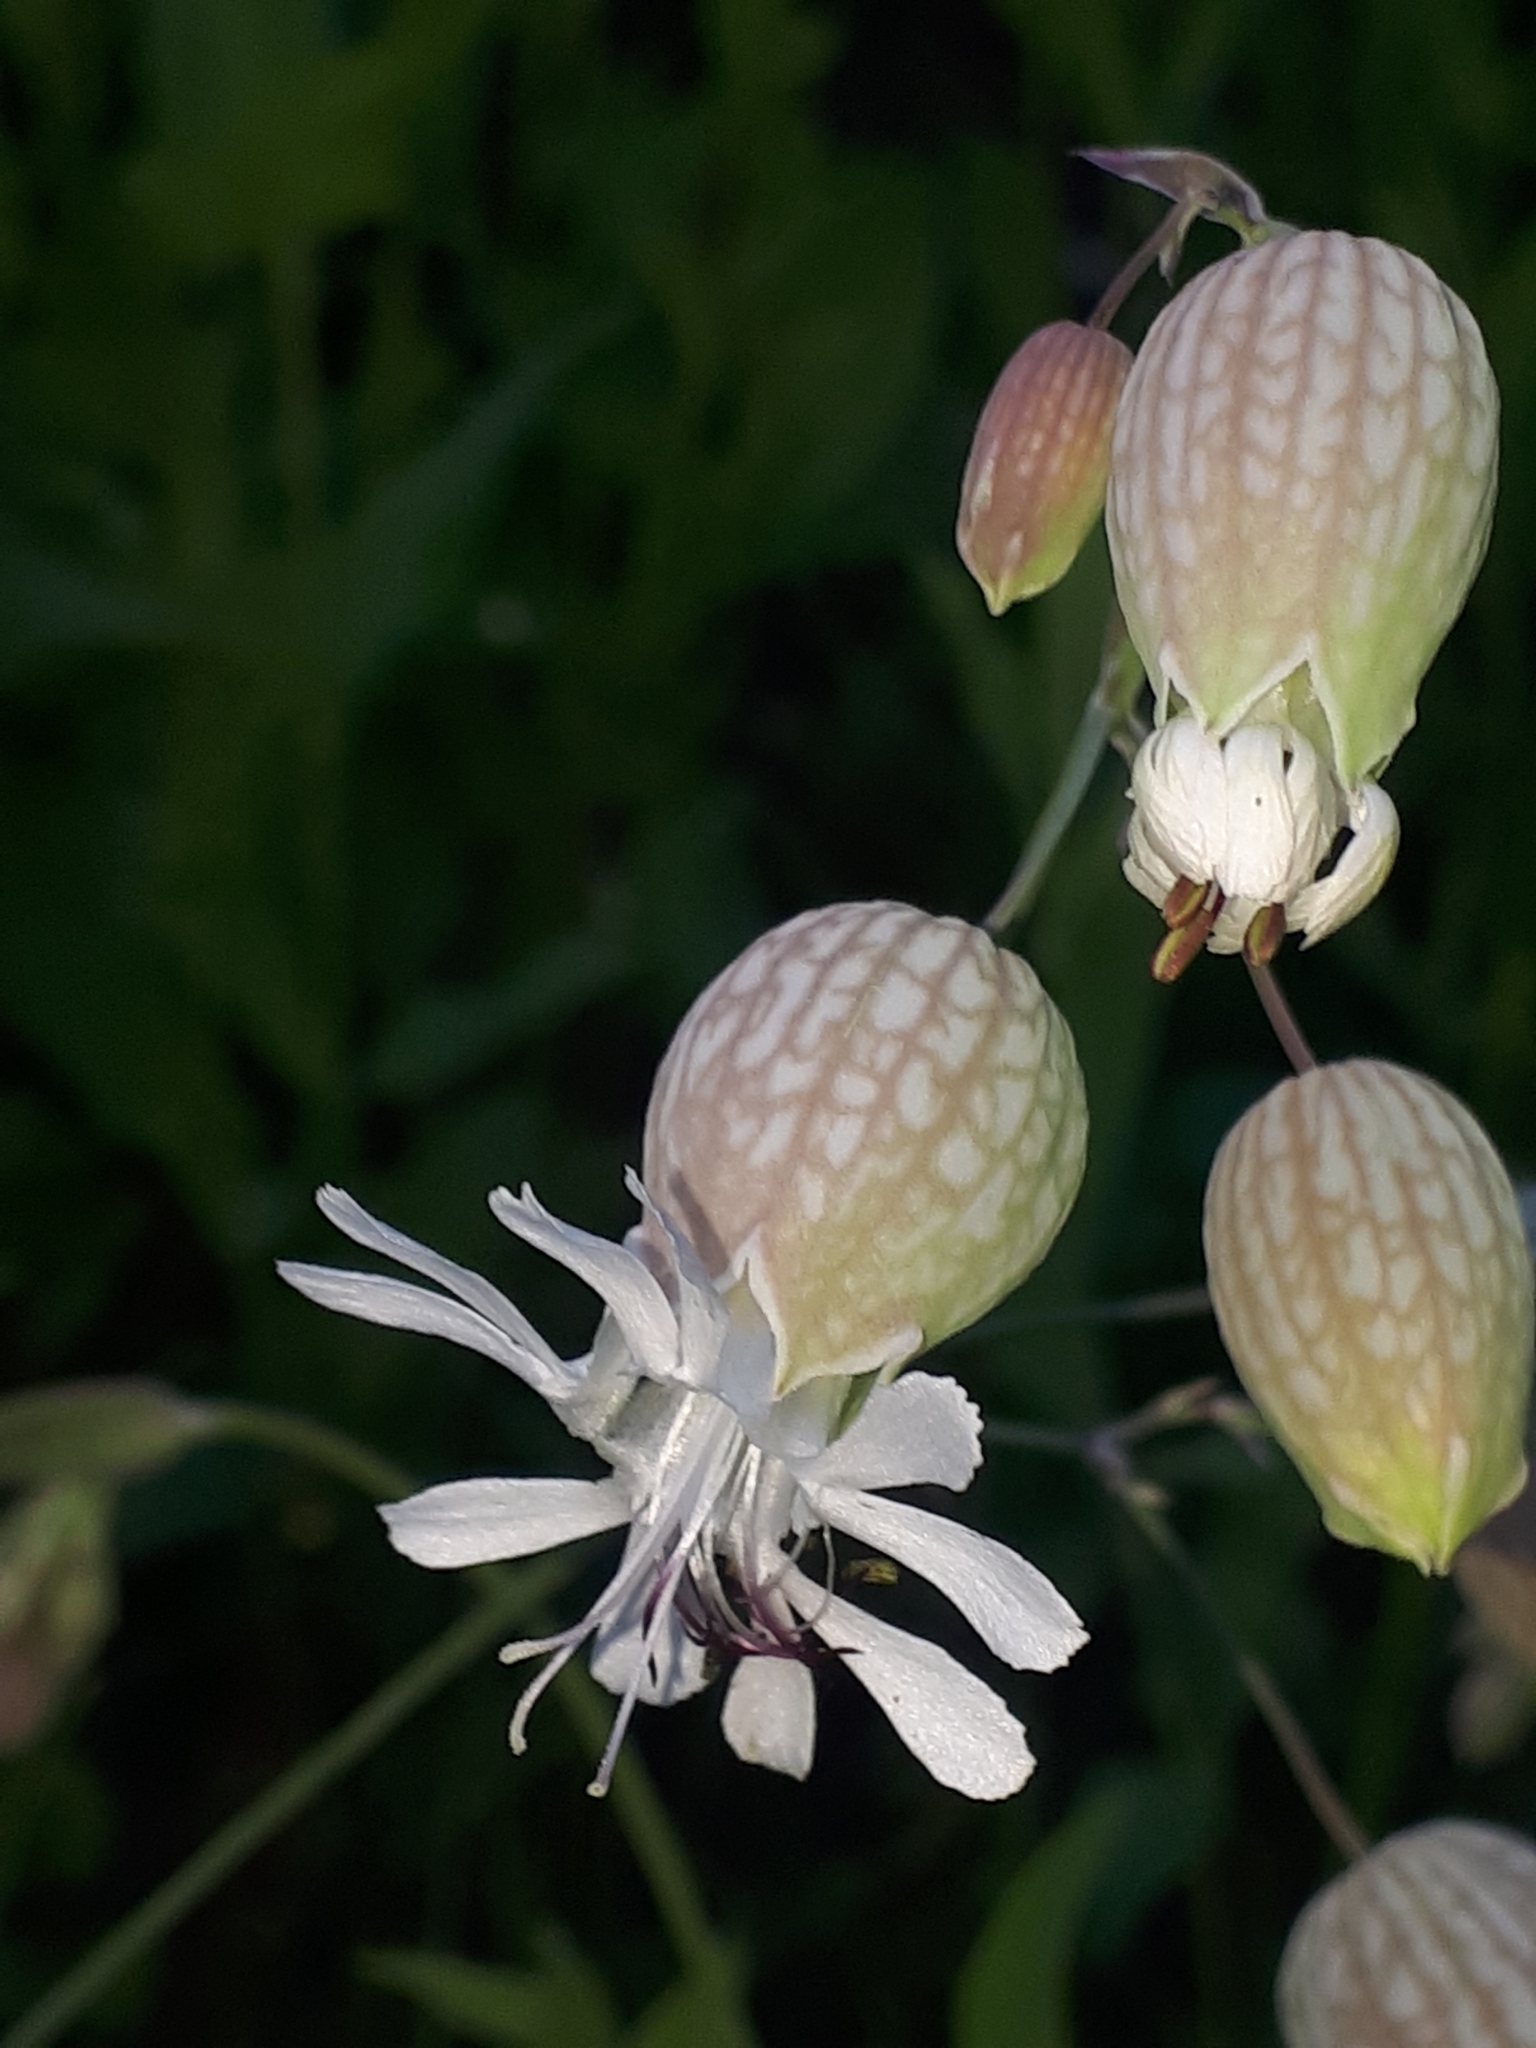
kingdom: Plantae
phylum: Tracheophyta
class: Magnoliopsida
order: Caryophyllales
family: Caryophyllaceae
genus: Silene
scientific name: Silene vulgaris
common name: Bladder campion
